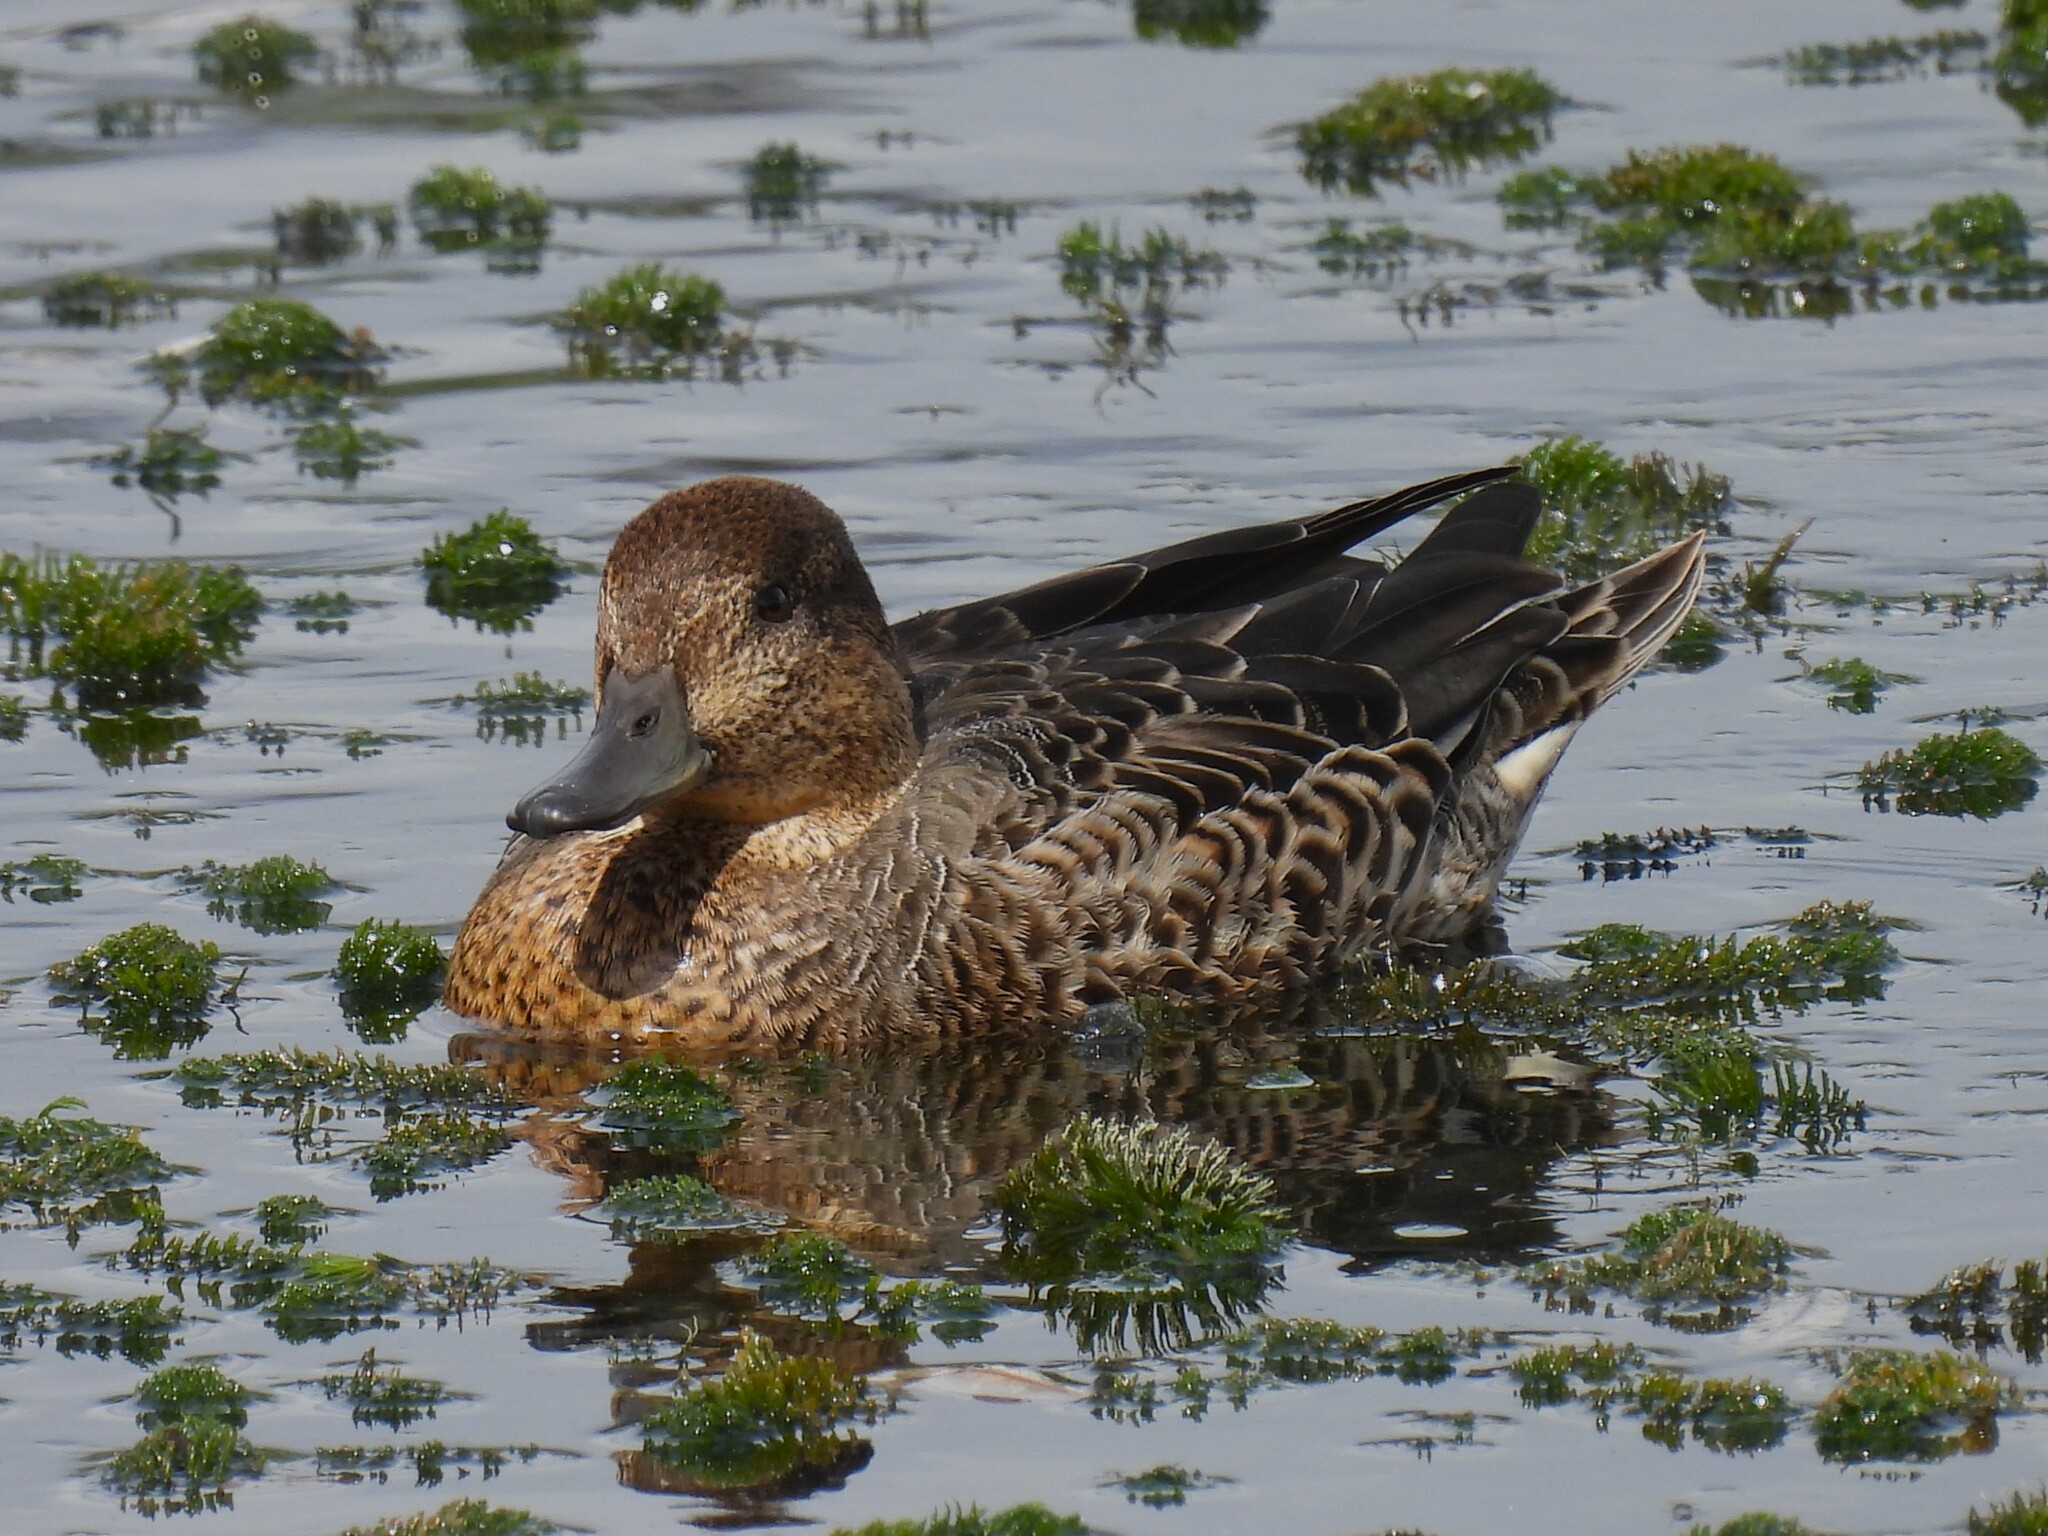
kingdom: Animalia
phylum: Chordata
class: Aves
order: Anseriformes
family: Anatidae
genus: Anas
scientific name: Anas crecca
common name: Eurasian teal
